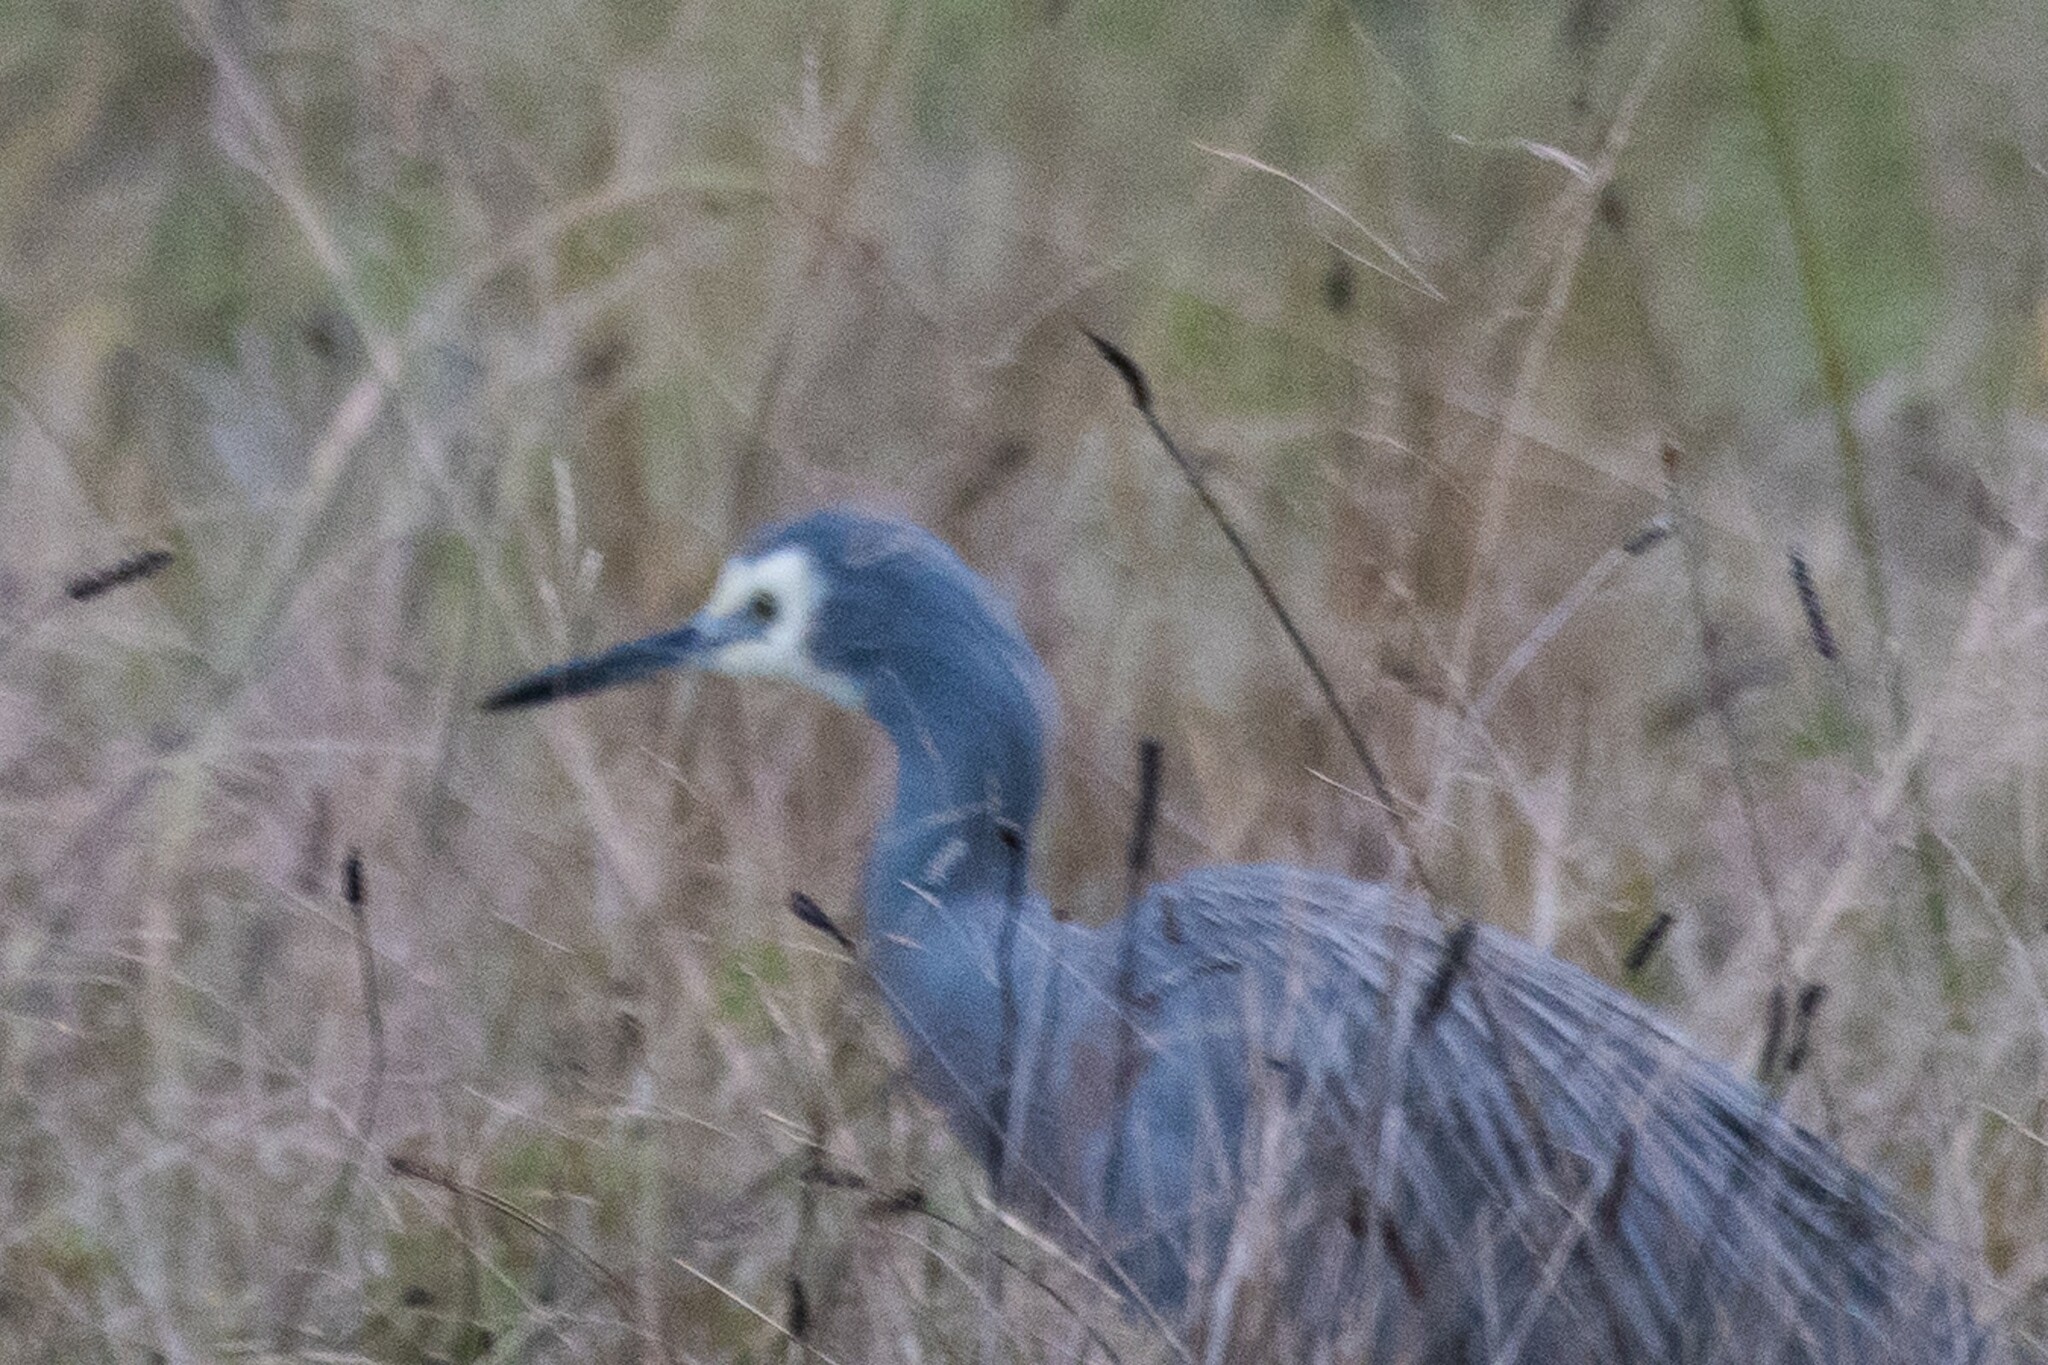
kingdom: Animalia
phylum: Chordata
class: Aves
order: Pelecaniformes
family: Ardeidae
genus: Egretta
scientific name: Egretta novaehollandiae
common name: White-faced heron
